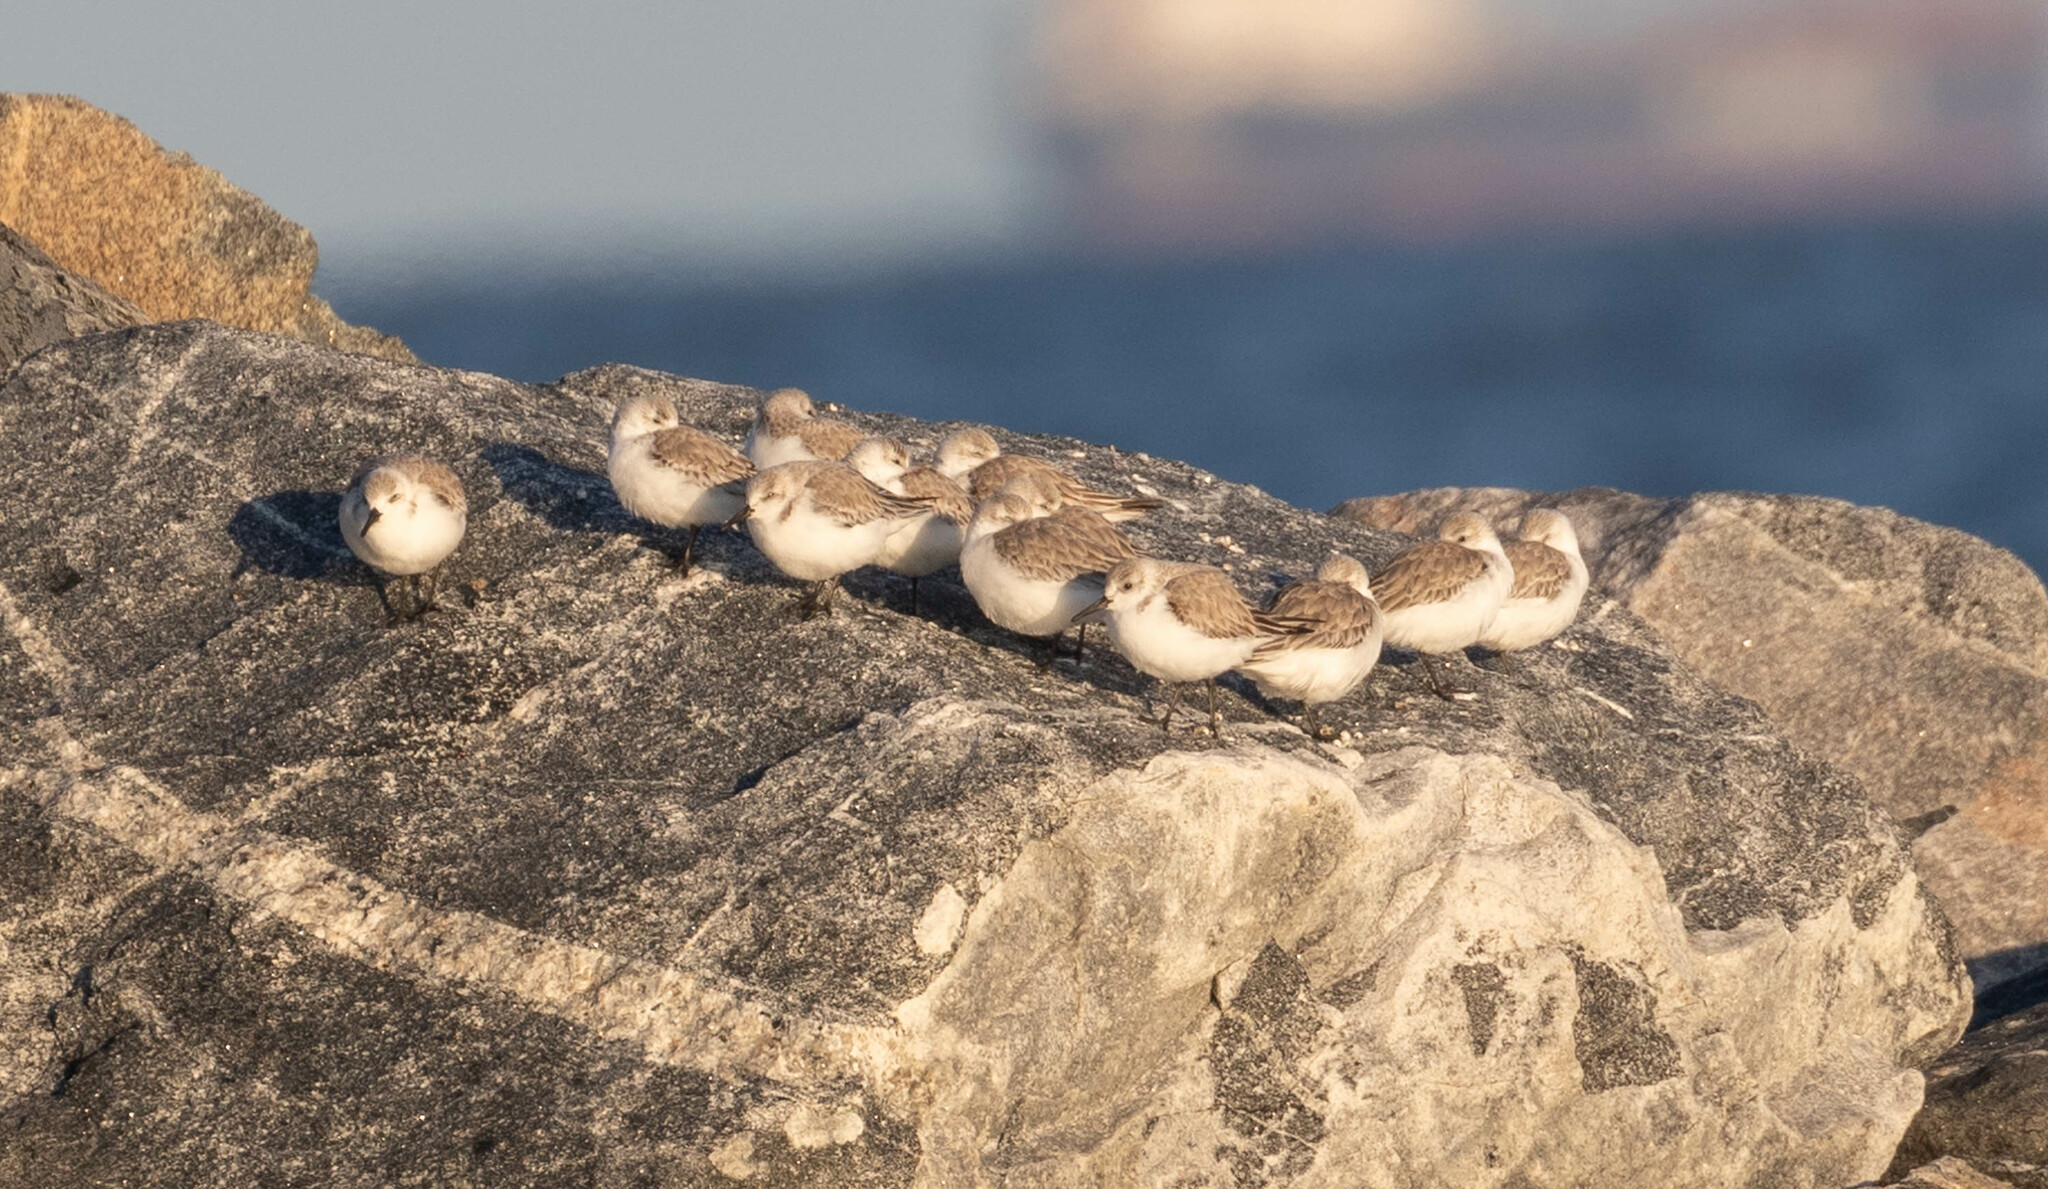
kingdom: Animalia
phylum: Chordata
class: Aves
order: Charadriiformes
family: Scolopacidae
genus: Calidris
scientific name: Calidris alba
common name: Sanderling
